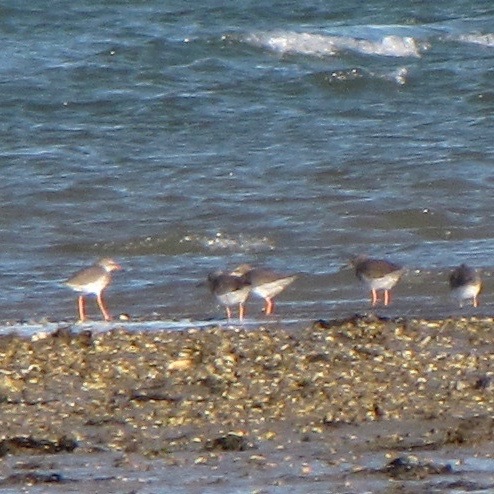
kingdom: Animalia
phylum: Chordata
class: Aves
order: Charadriiformes
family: Scolopacidae
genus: Tringa
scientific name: Tringa totanus
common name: Common redshank
